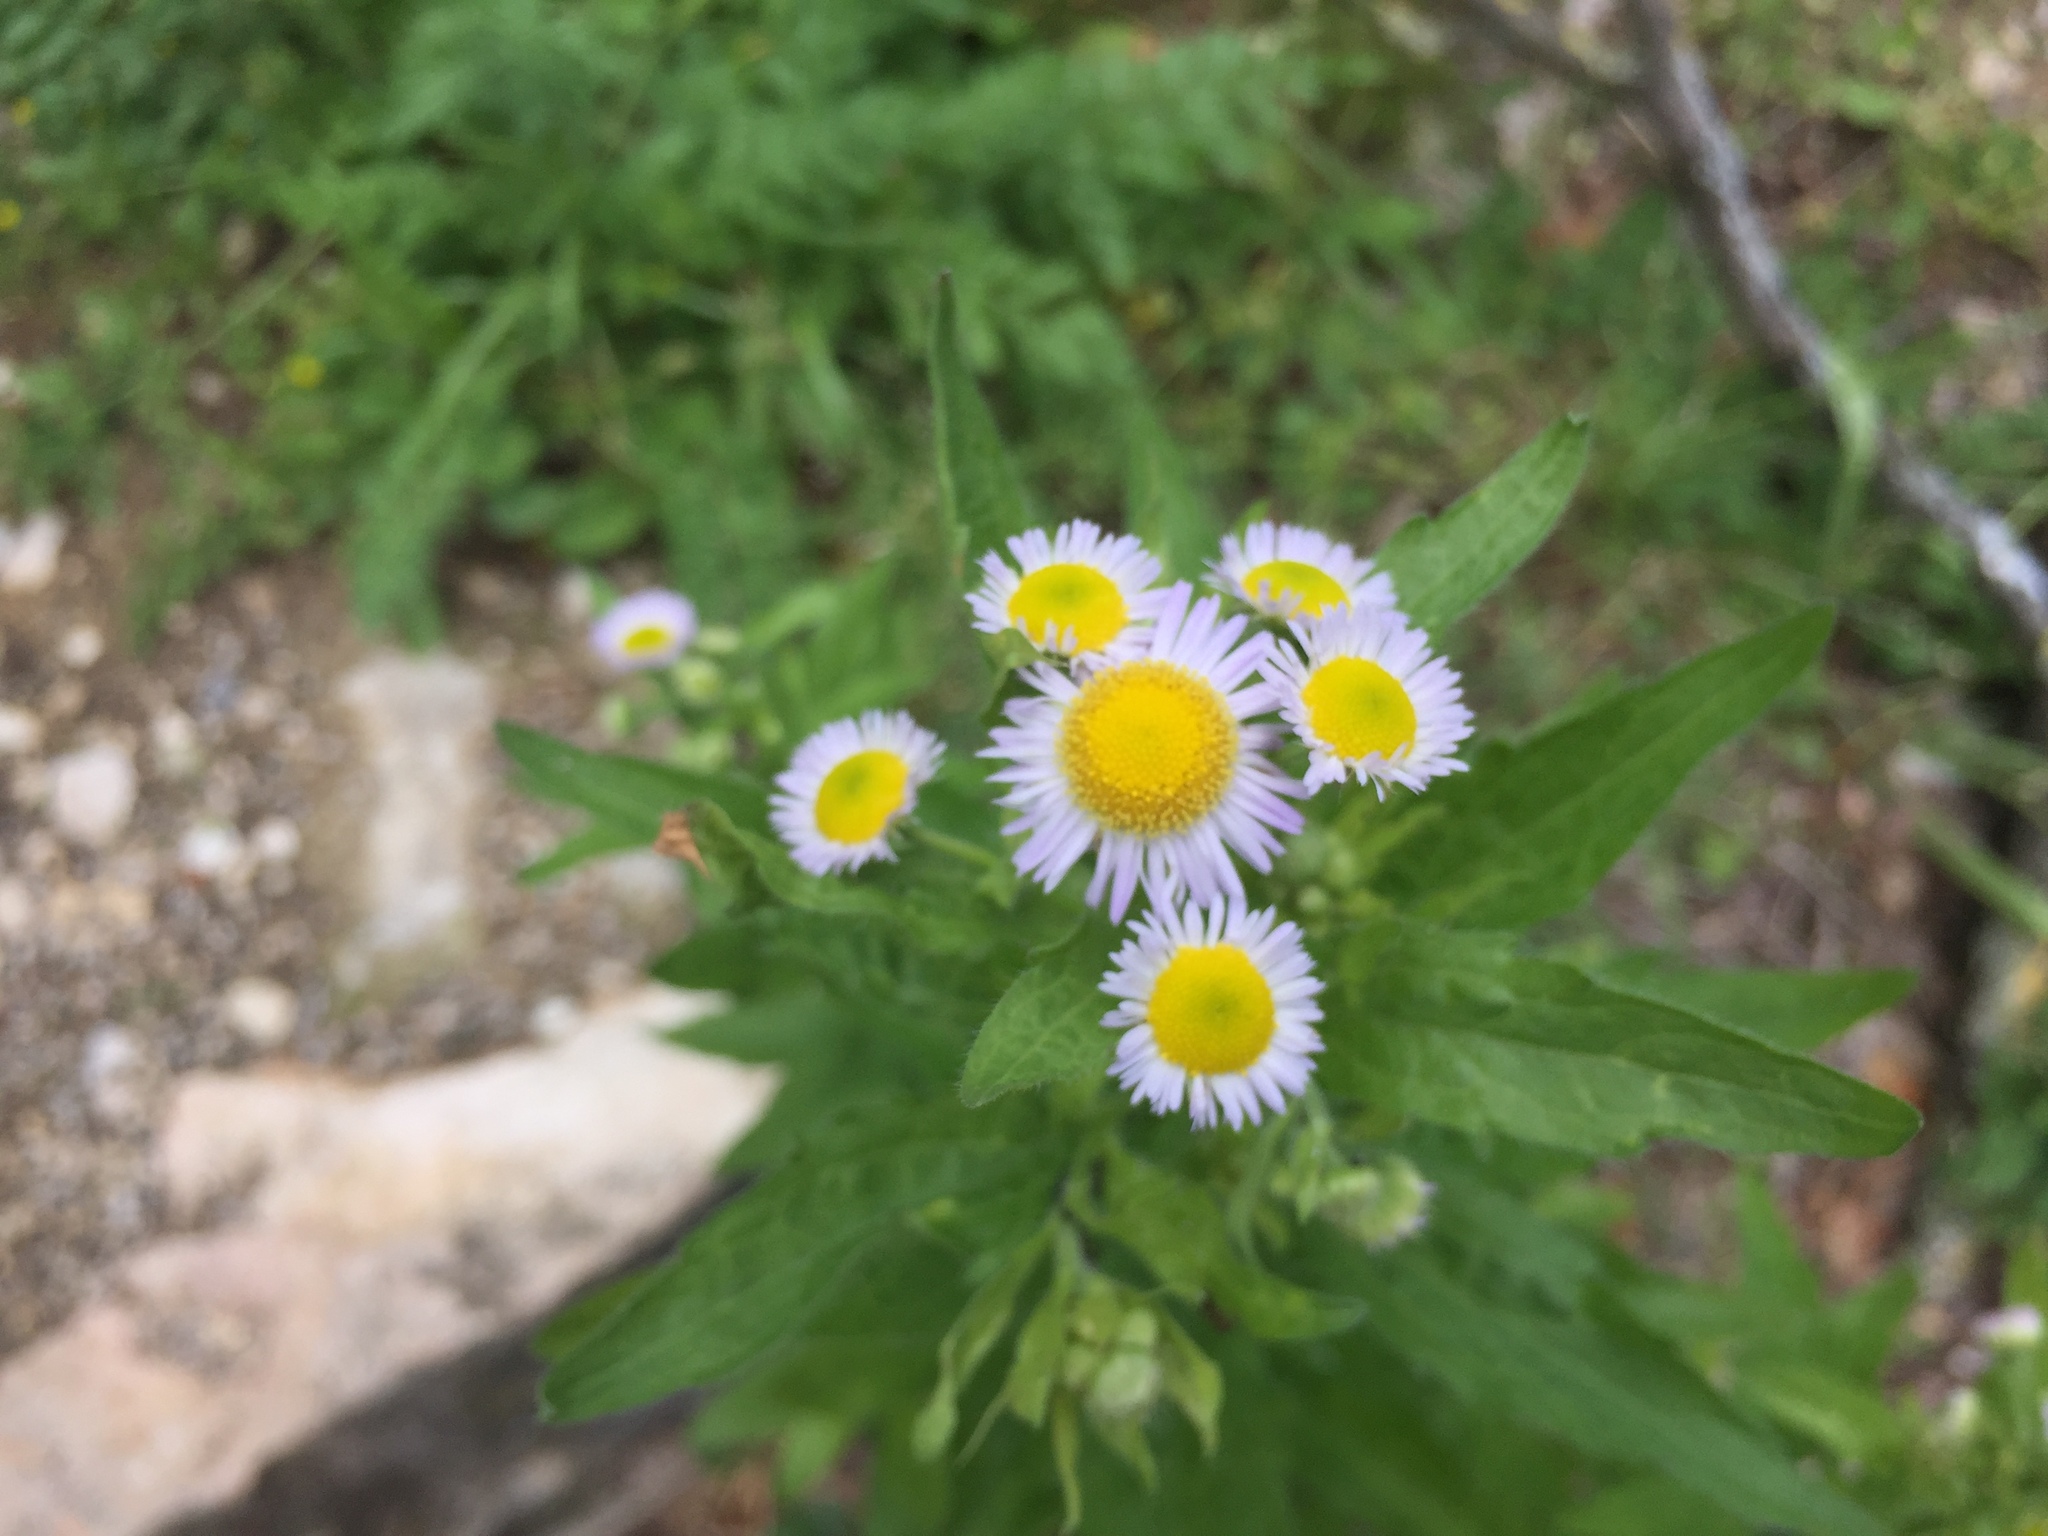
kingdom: Plantae
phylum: Tracheophyta
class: Magnoliopsida
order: Asterales
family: Asteraceae
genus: Erigeron
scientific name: Erigeron annuus
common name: Tall fleabane
